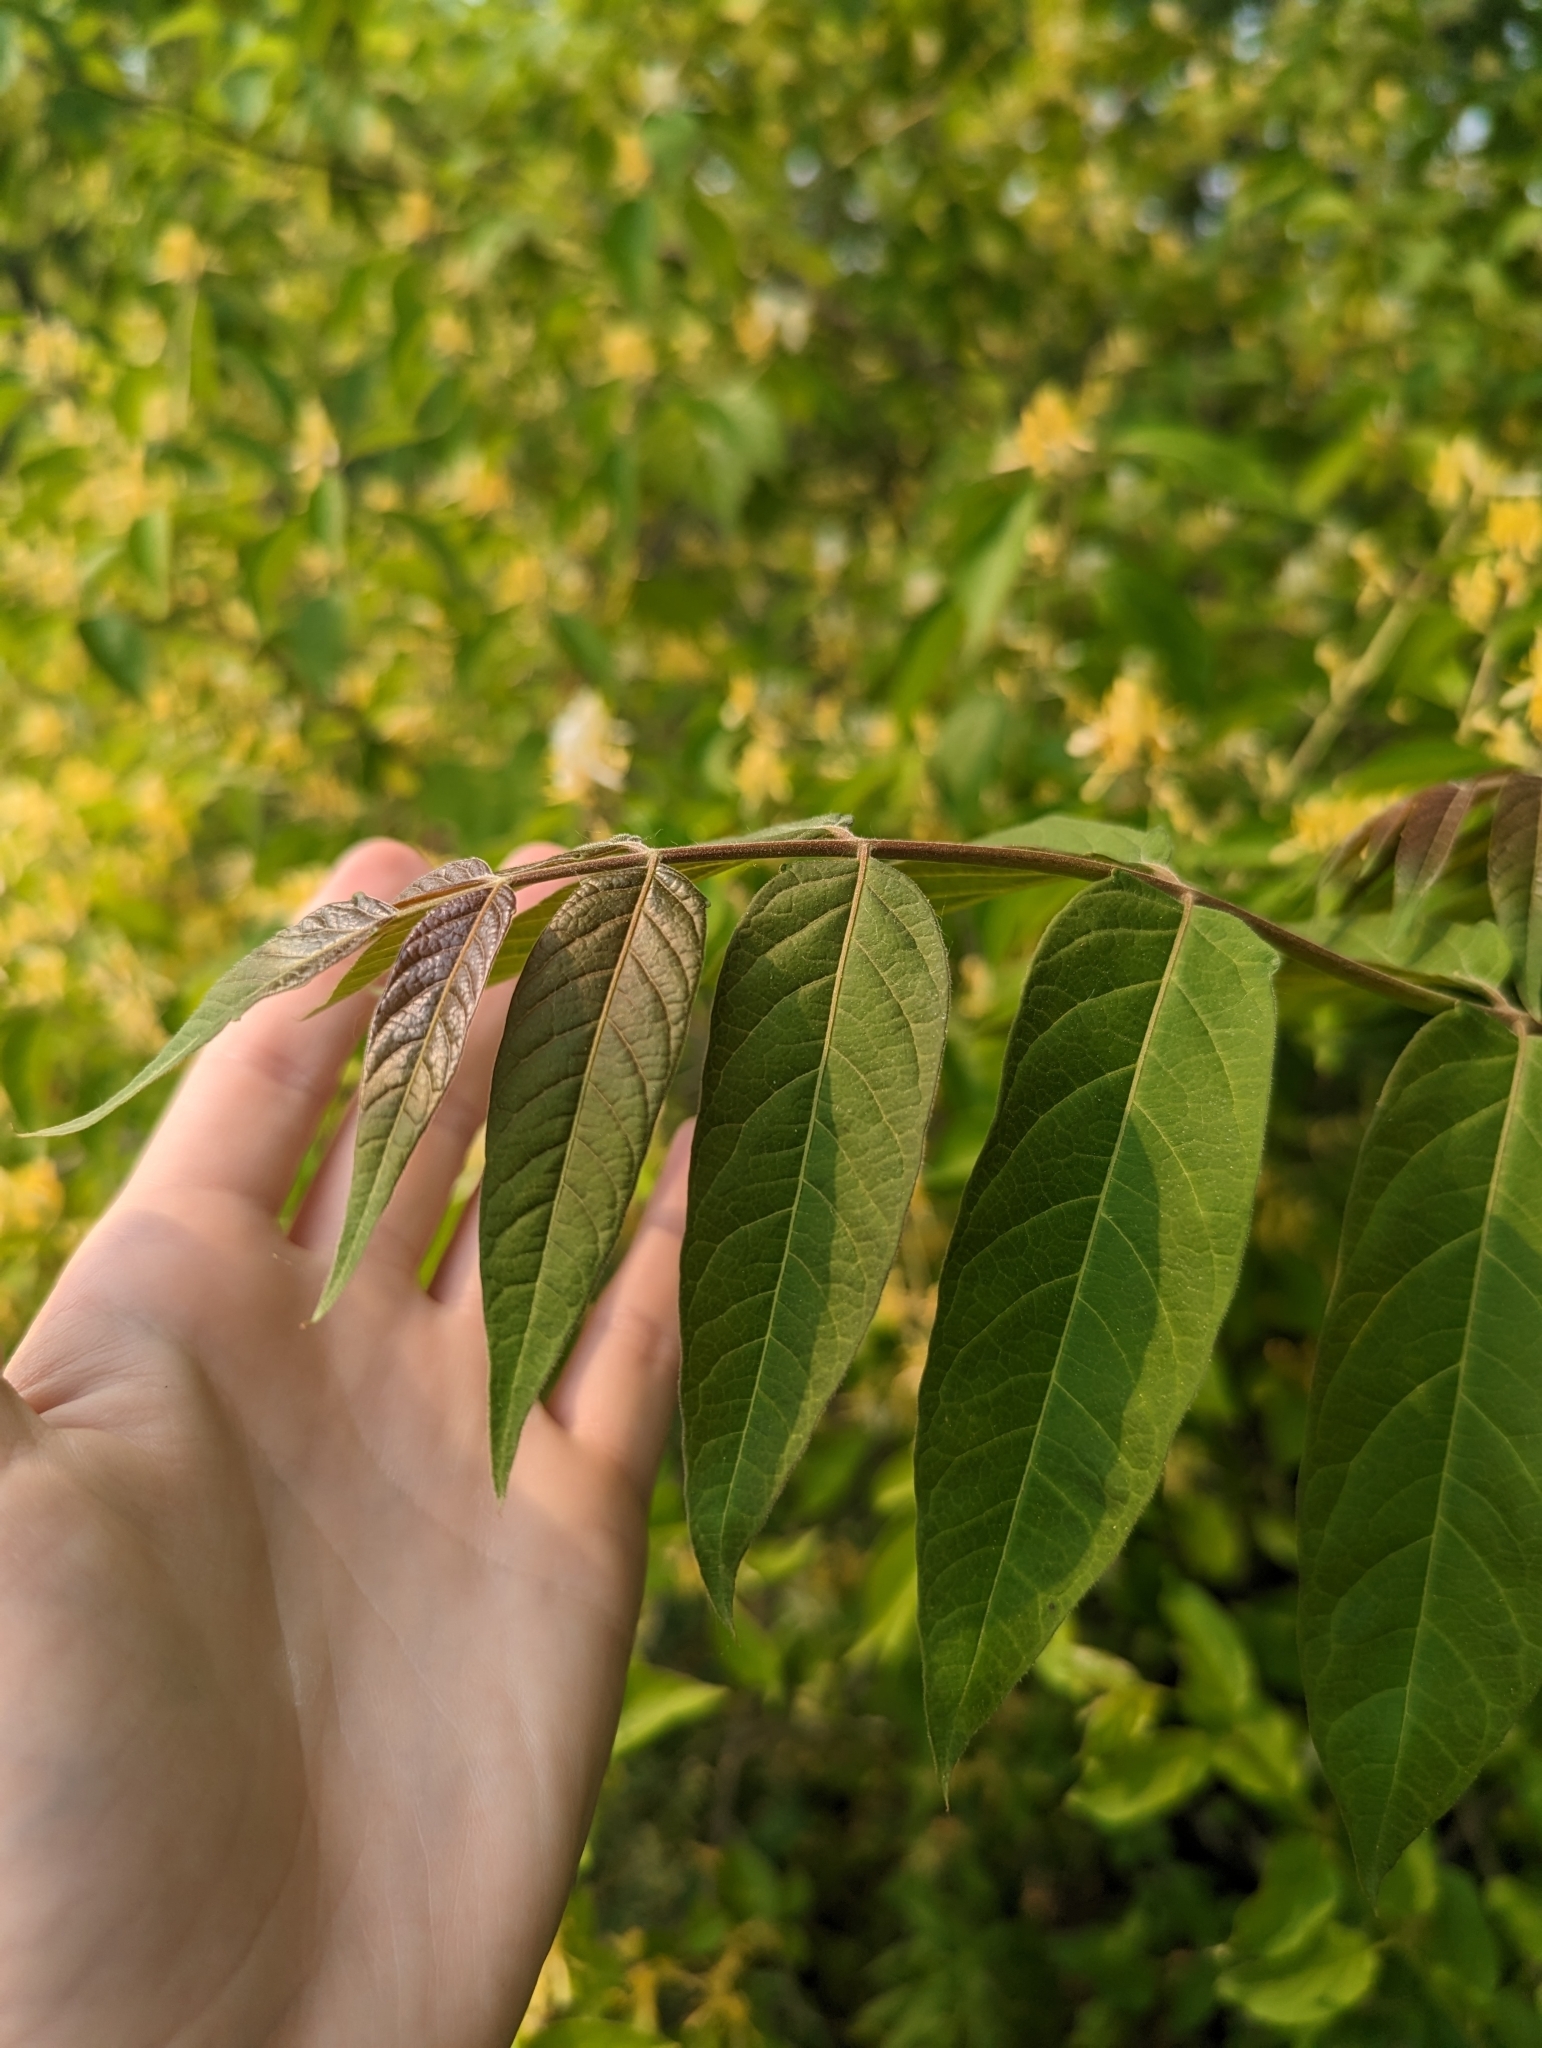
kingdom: Plantae
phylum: Tracheophyta
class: Magnoliopsida
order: Sapindales
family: Simaroubaceae
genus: Ailanthus
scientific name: Ailanthus altissima
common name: Tree-of-heaven
